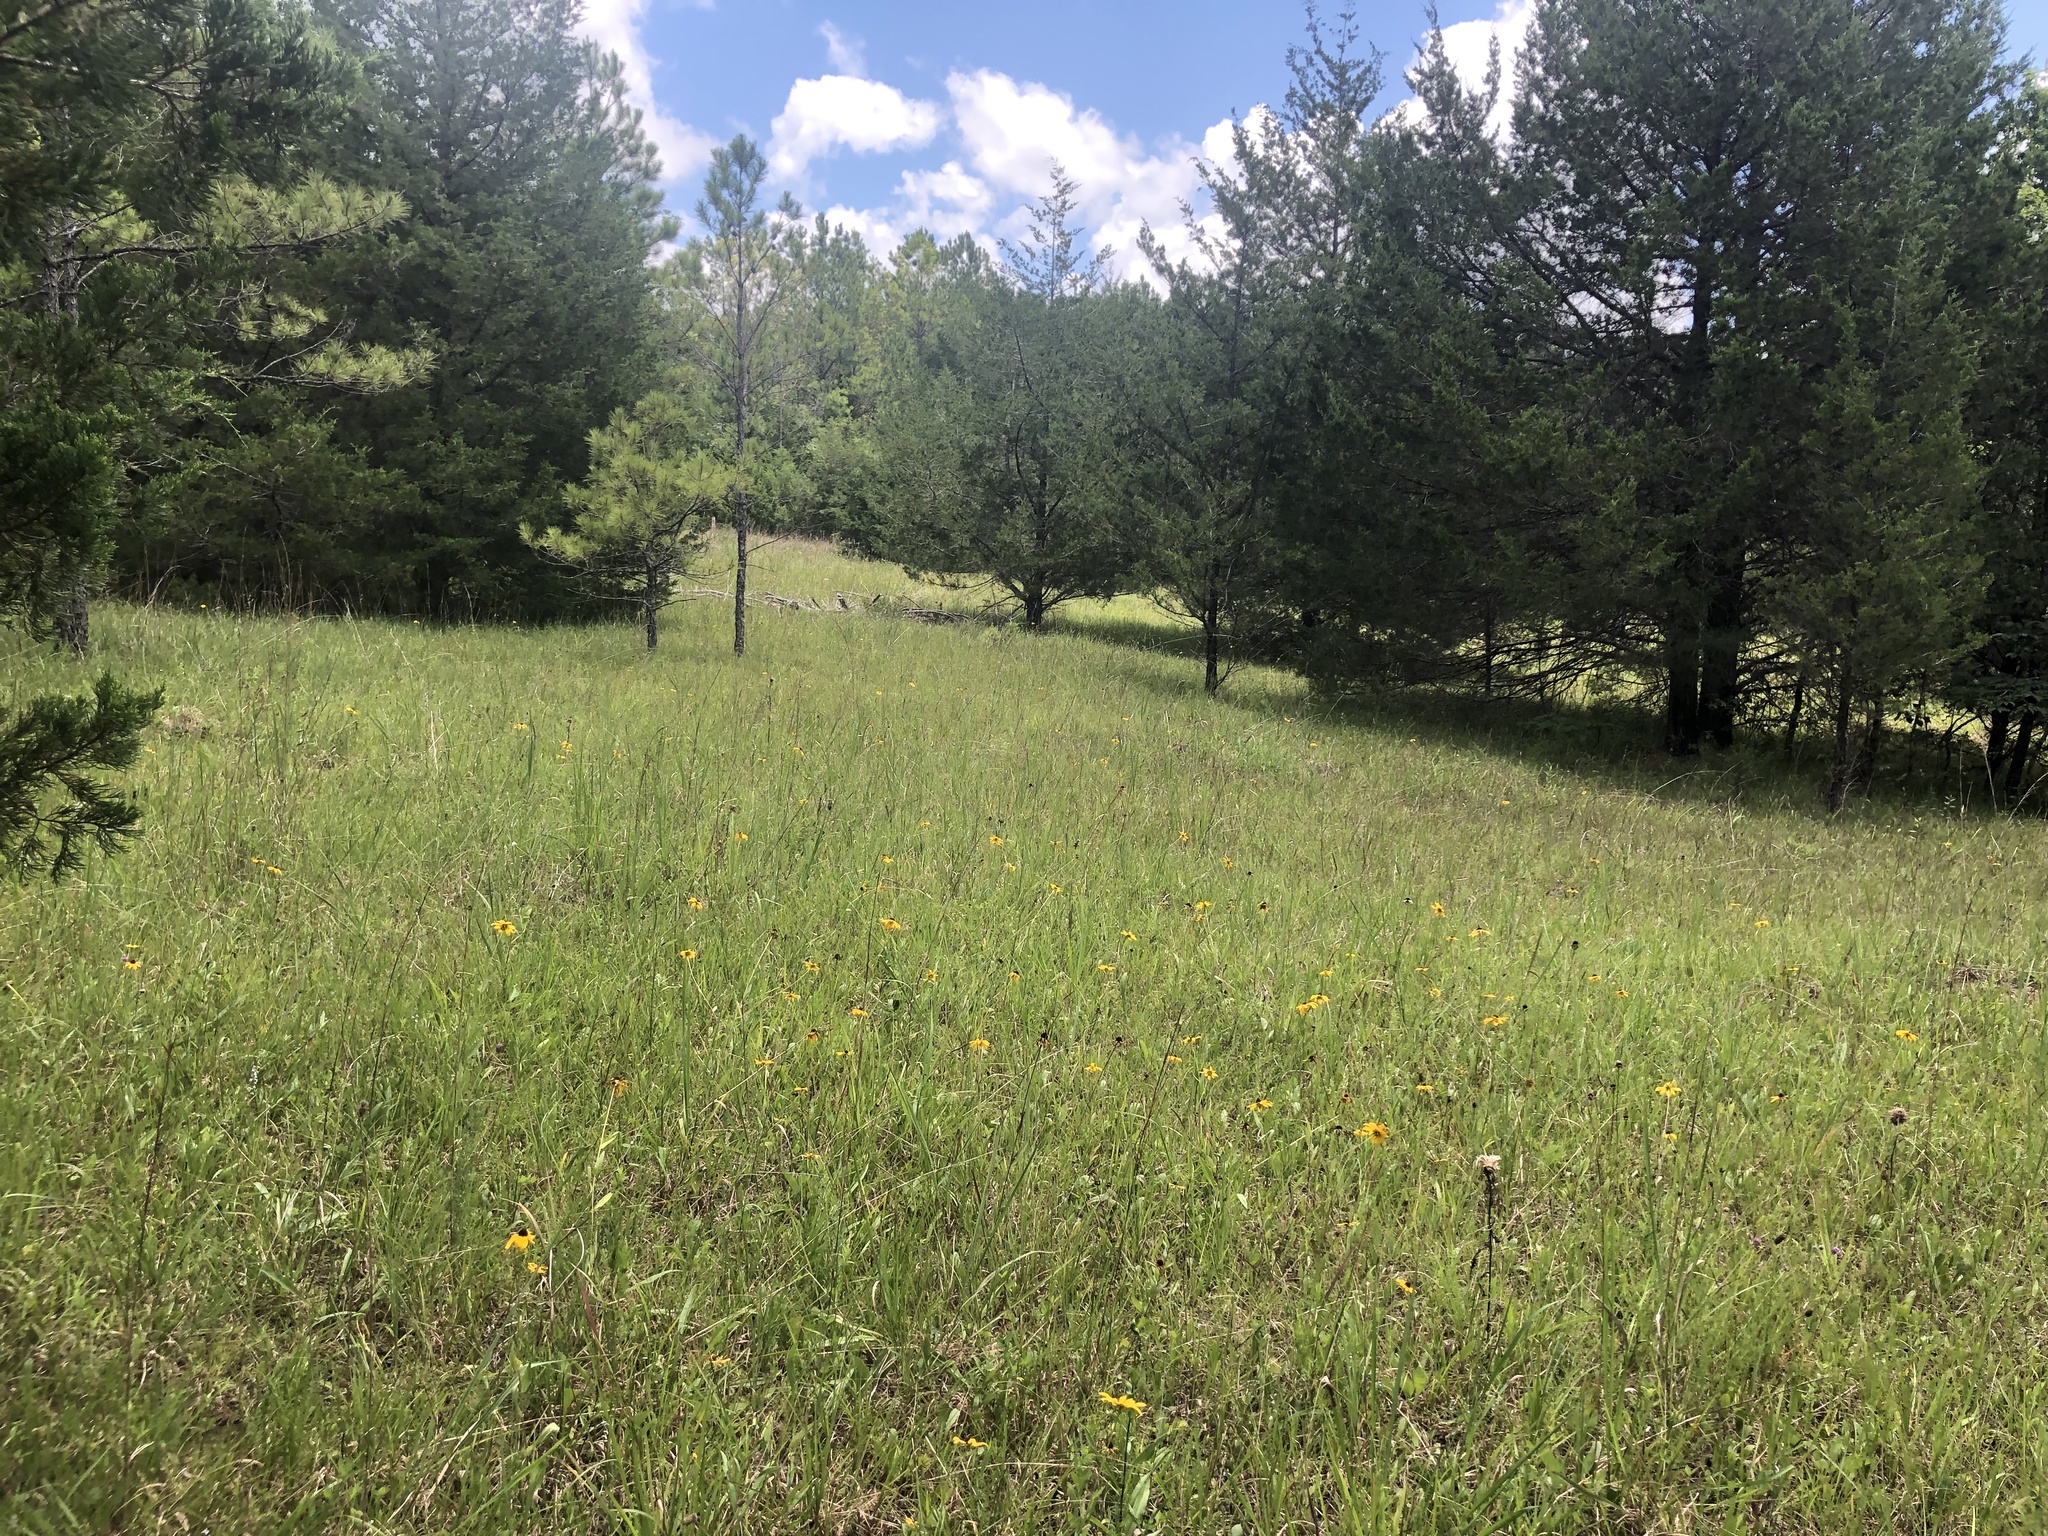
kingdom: Plantae
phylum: Tracheophyta
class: Pinopsida
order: Pinales
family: Cupressaceae
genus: Juniperus
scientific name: Juniperus virginiana
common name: Red juniper
